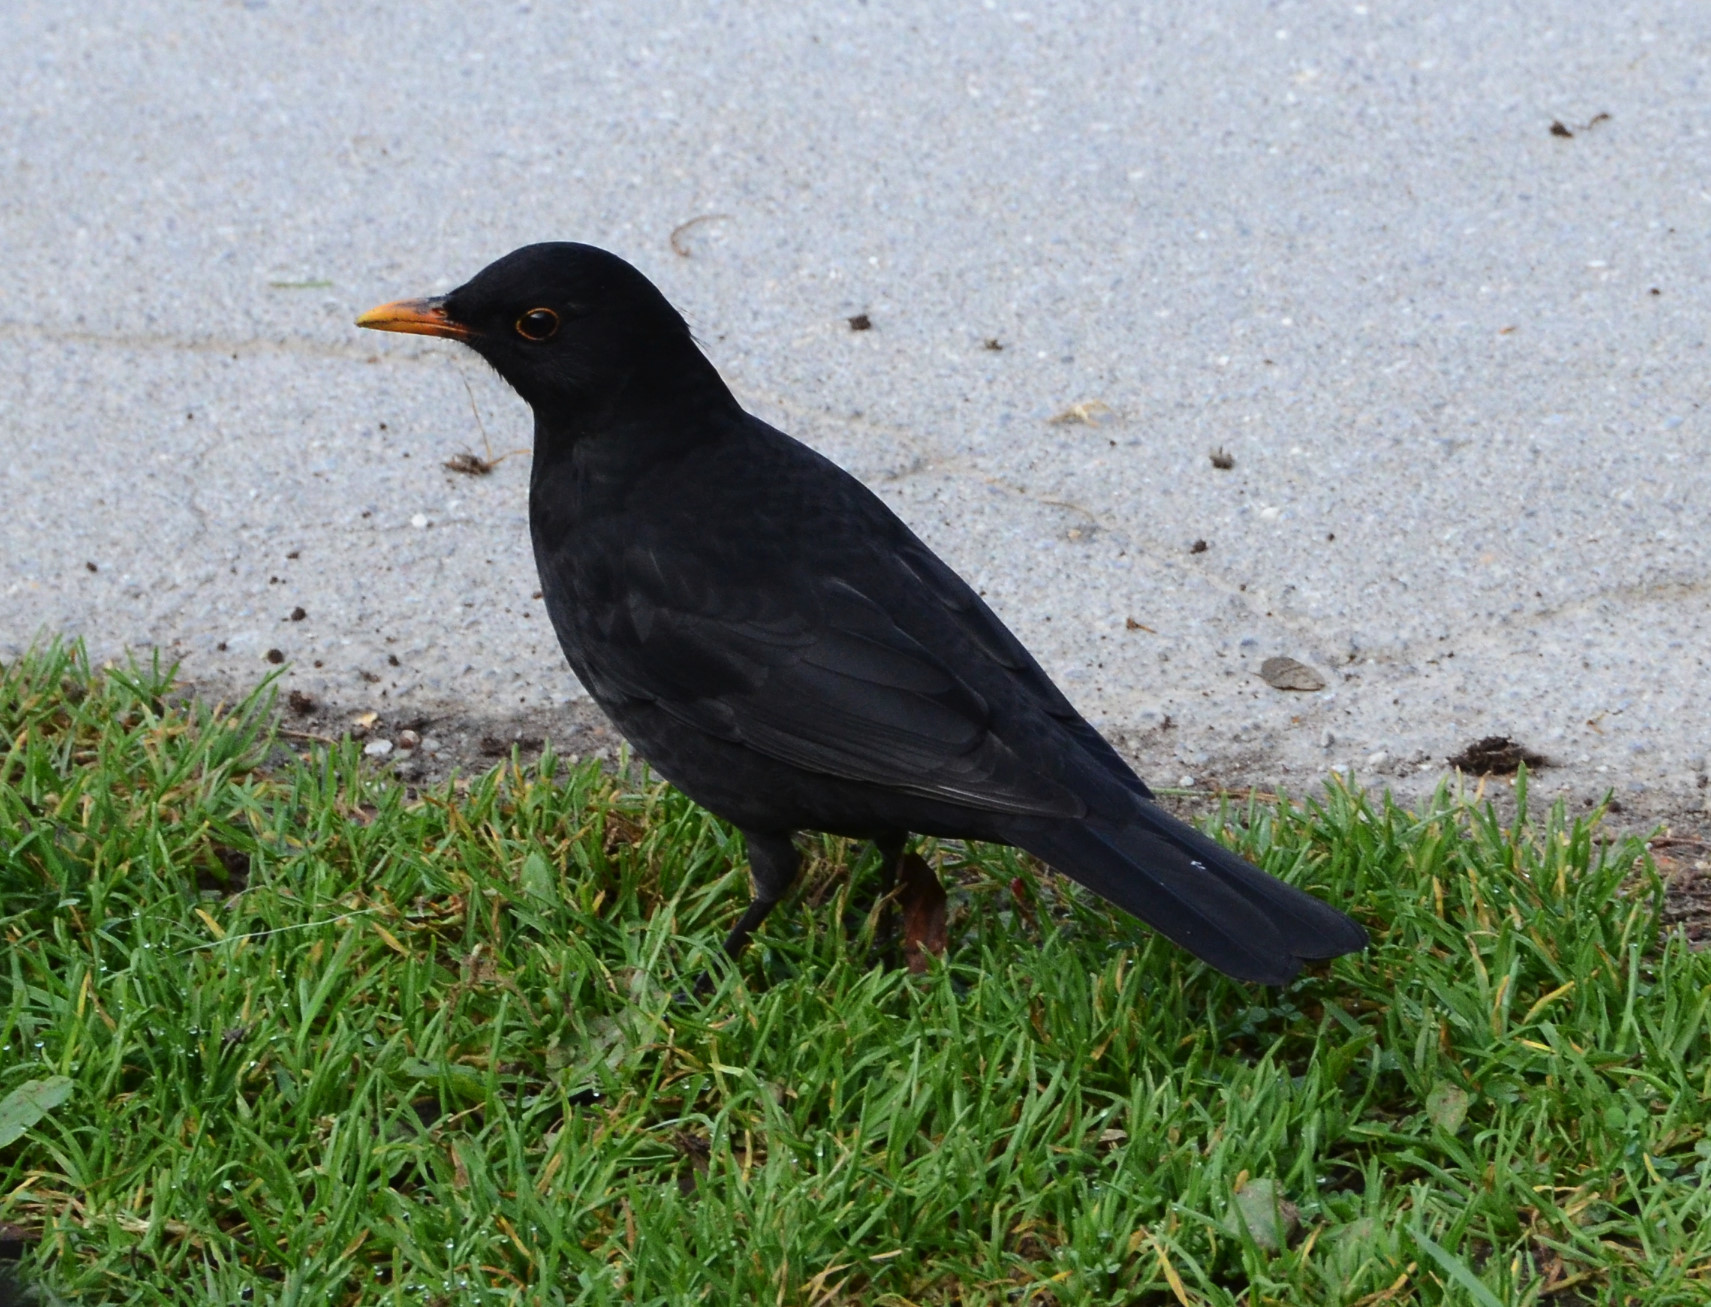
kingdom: Animalia
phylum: Chordata
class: Aves
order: Passeriformes
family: Turdidae
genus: Turdus
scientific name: Turdus merula
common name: Common blackbird
